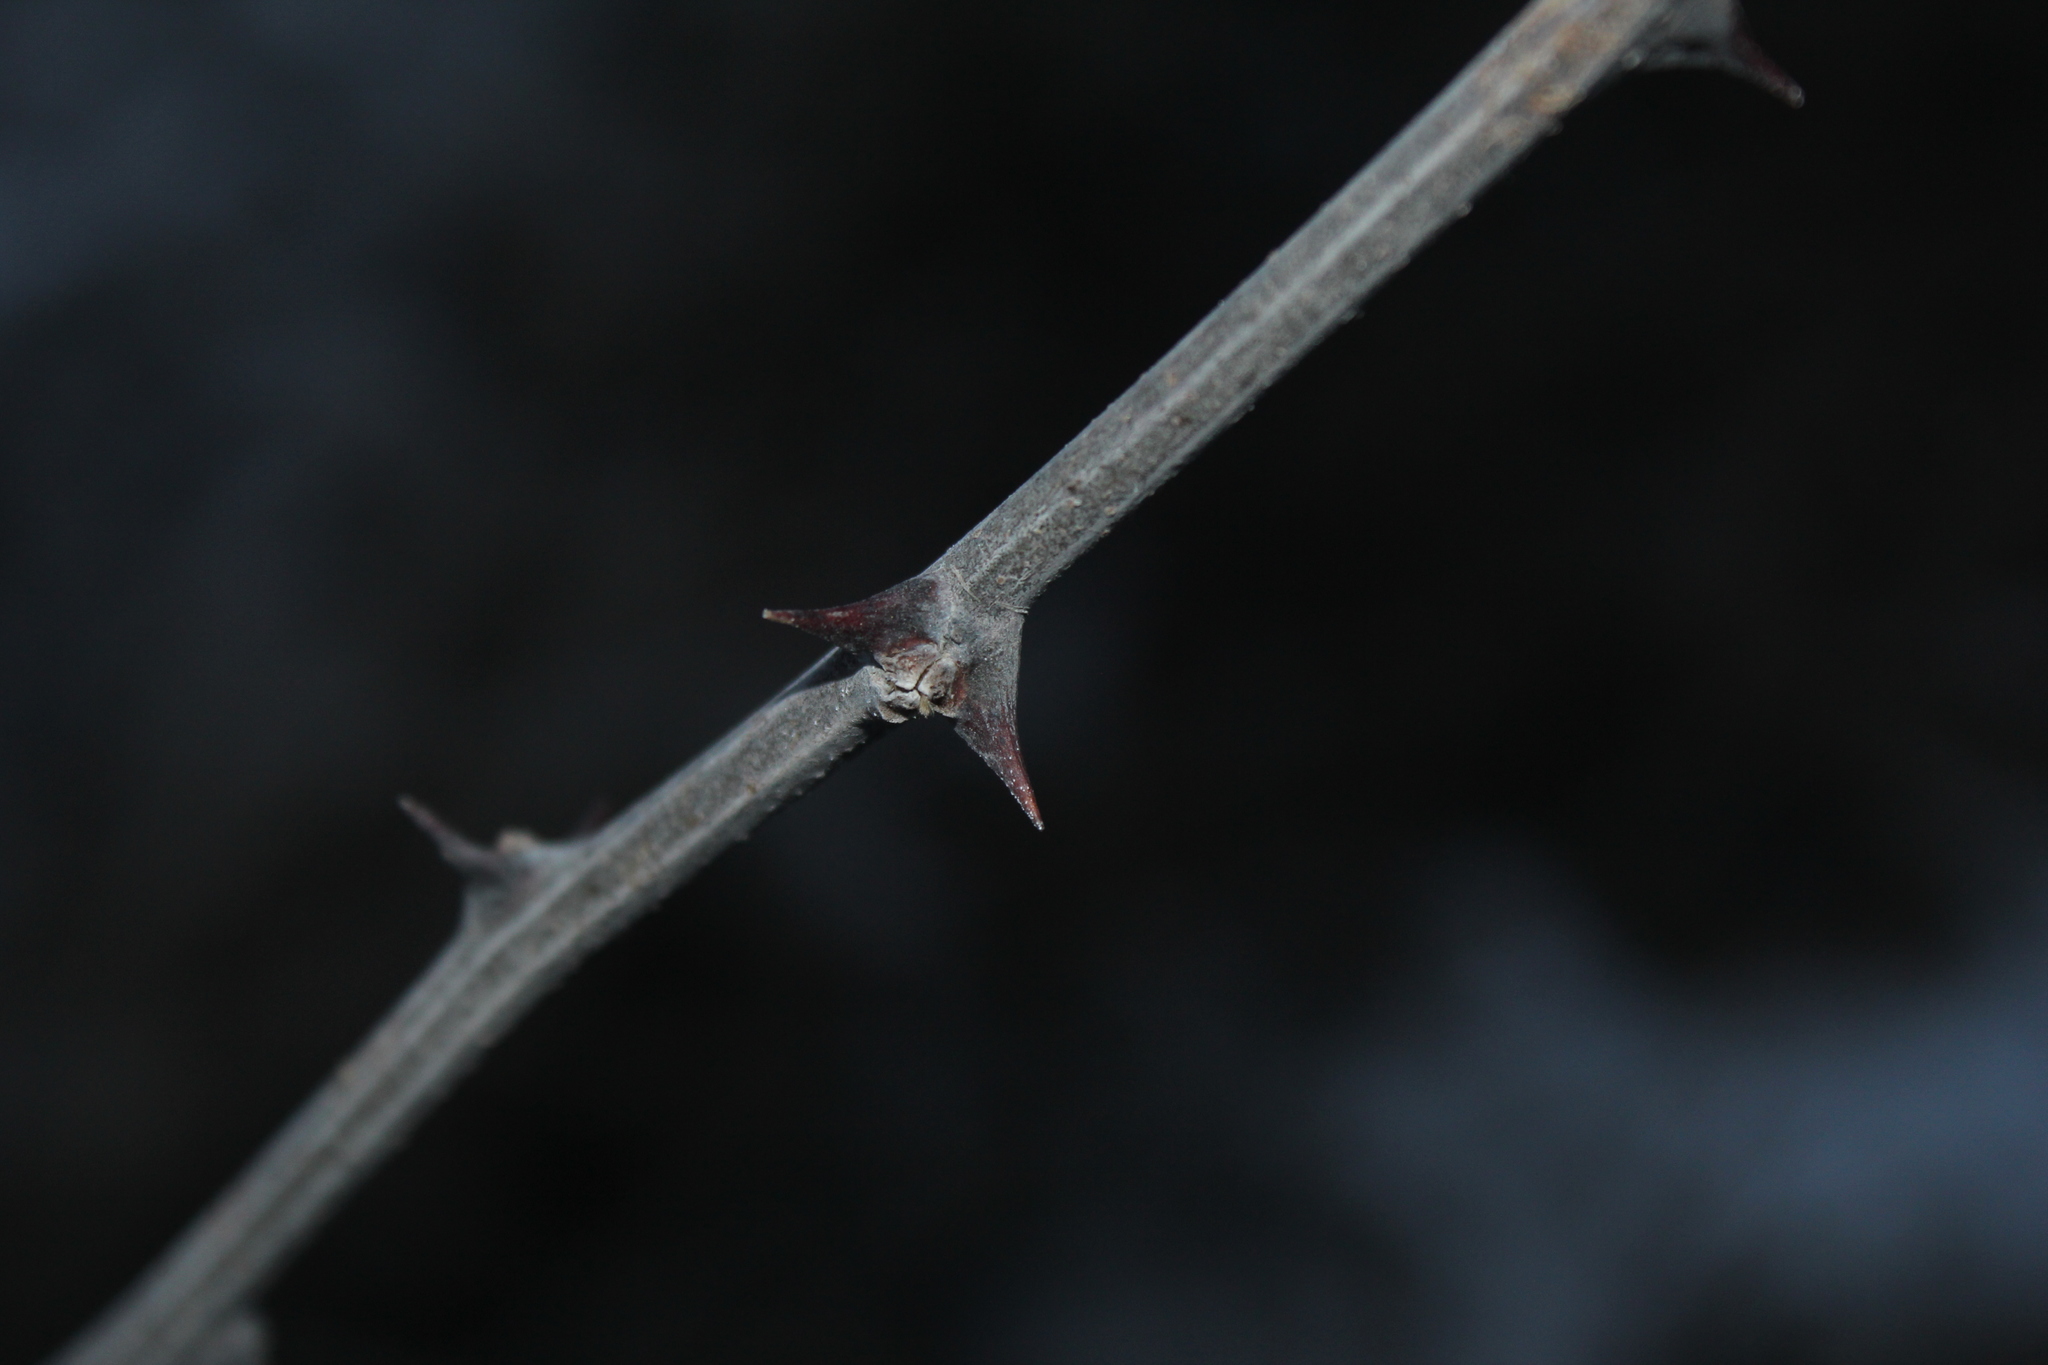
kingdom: Plantae
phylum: Tracheophyta
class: Magnoliopsida
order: Fabales
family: Fabaceae
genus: Robinia
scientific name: Robinia pseudoacacia
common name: Black locust
